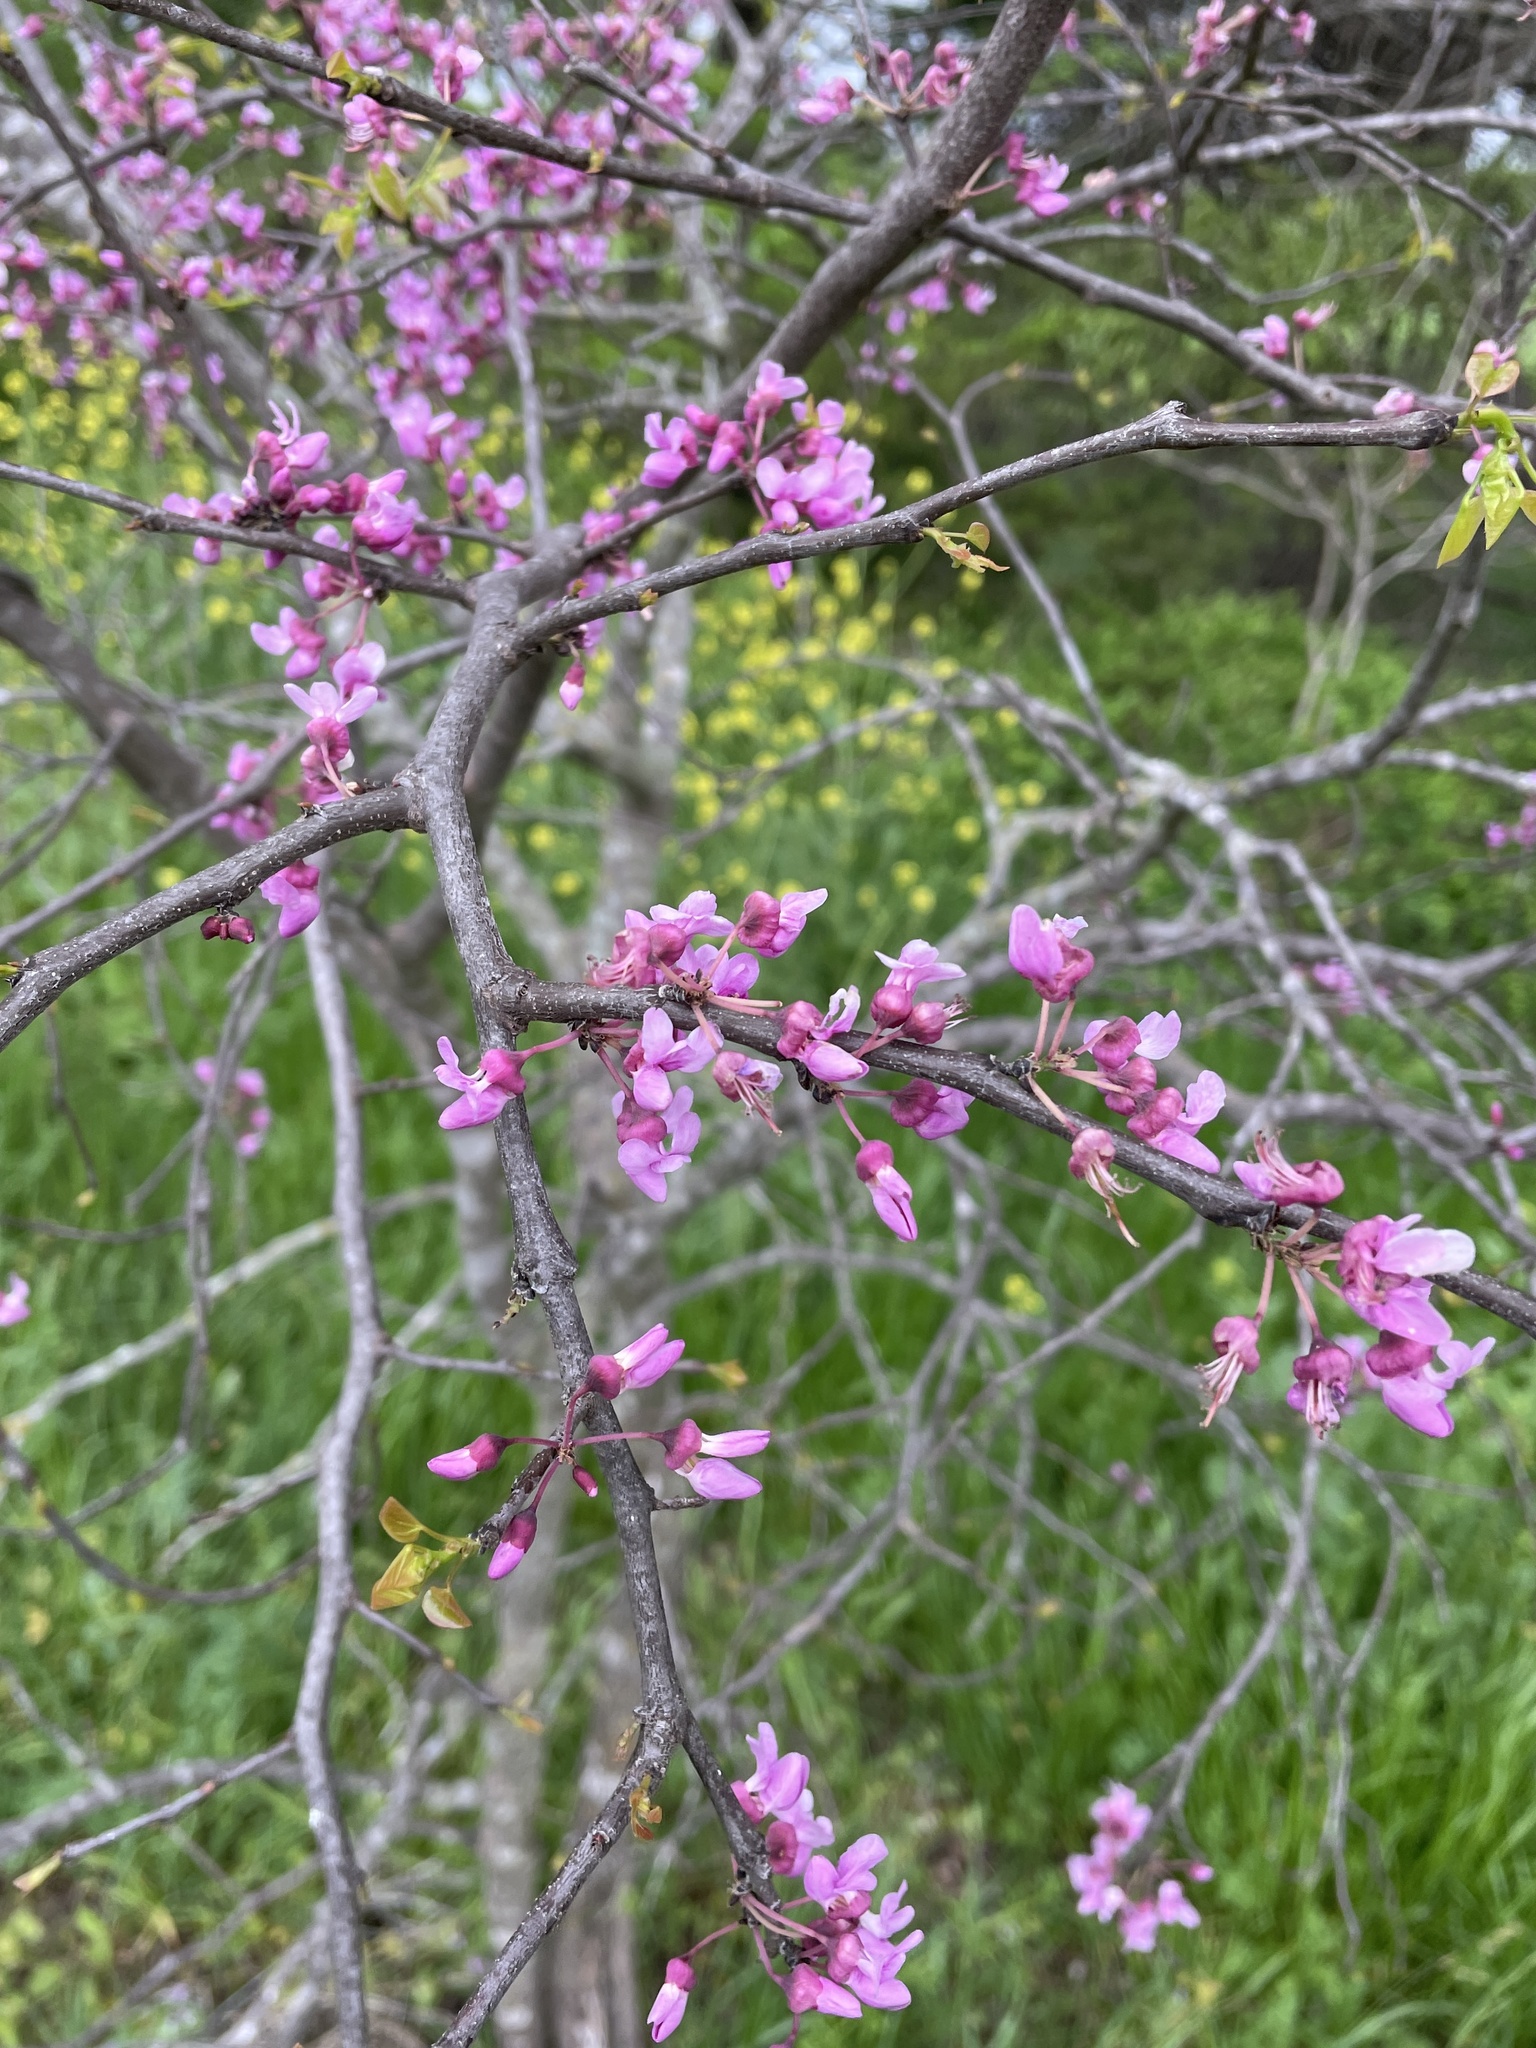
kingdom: Plantae
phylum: Tracheophyta
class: Magnoliopsida
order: Fabales
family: Fabaceae
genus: Cercis
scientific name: Cercis canadensis
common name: Eastern redbud
